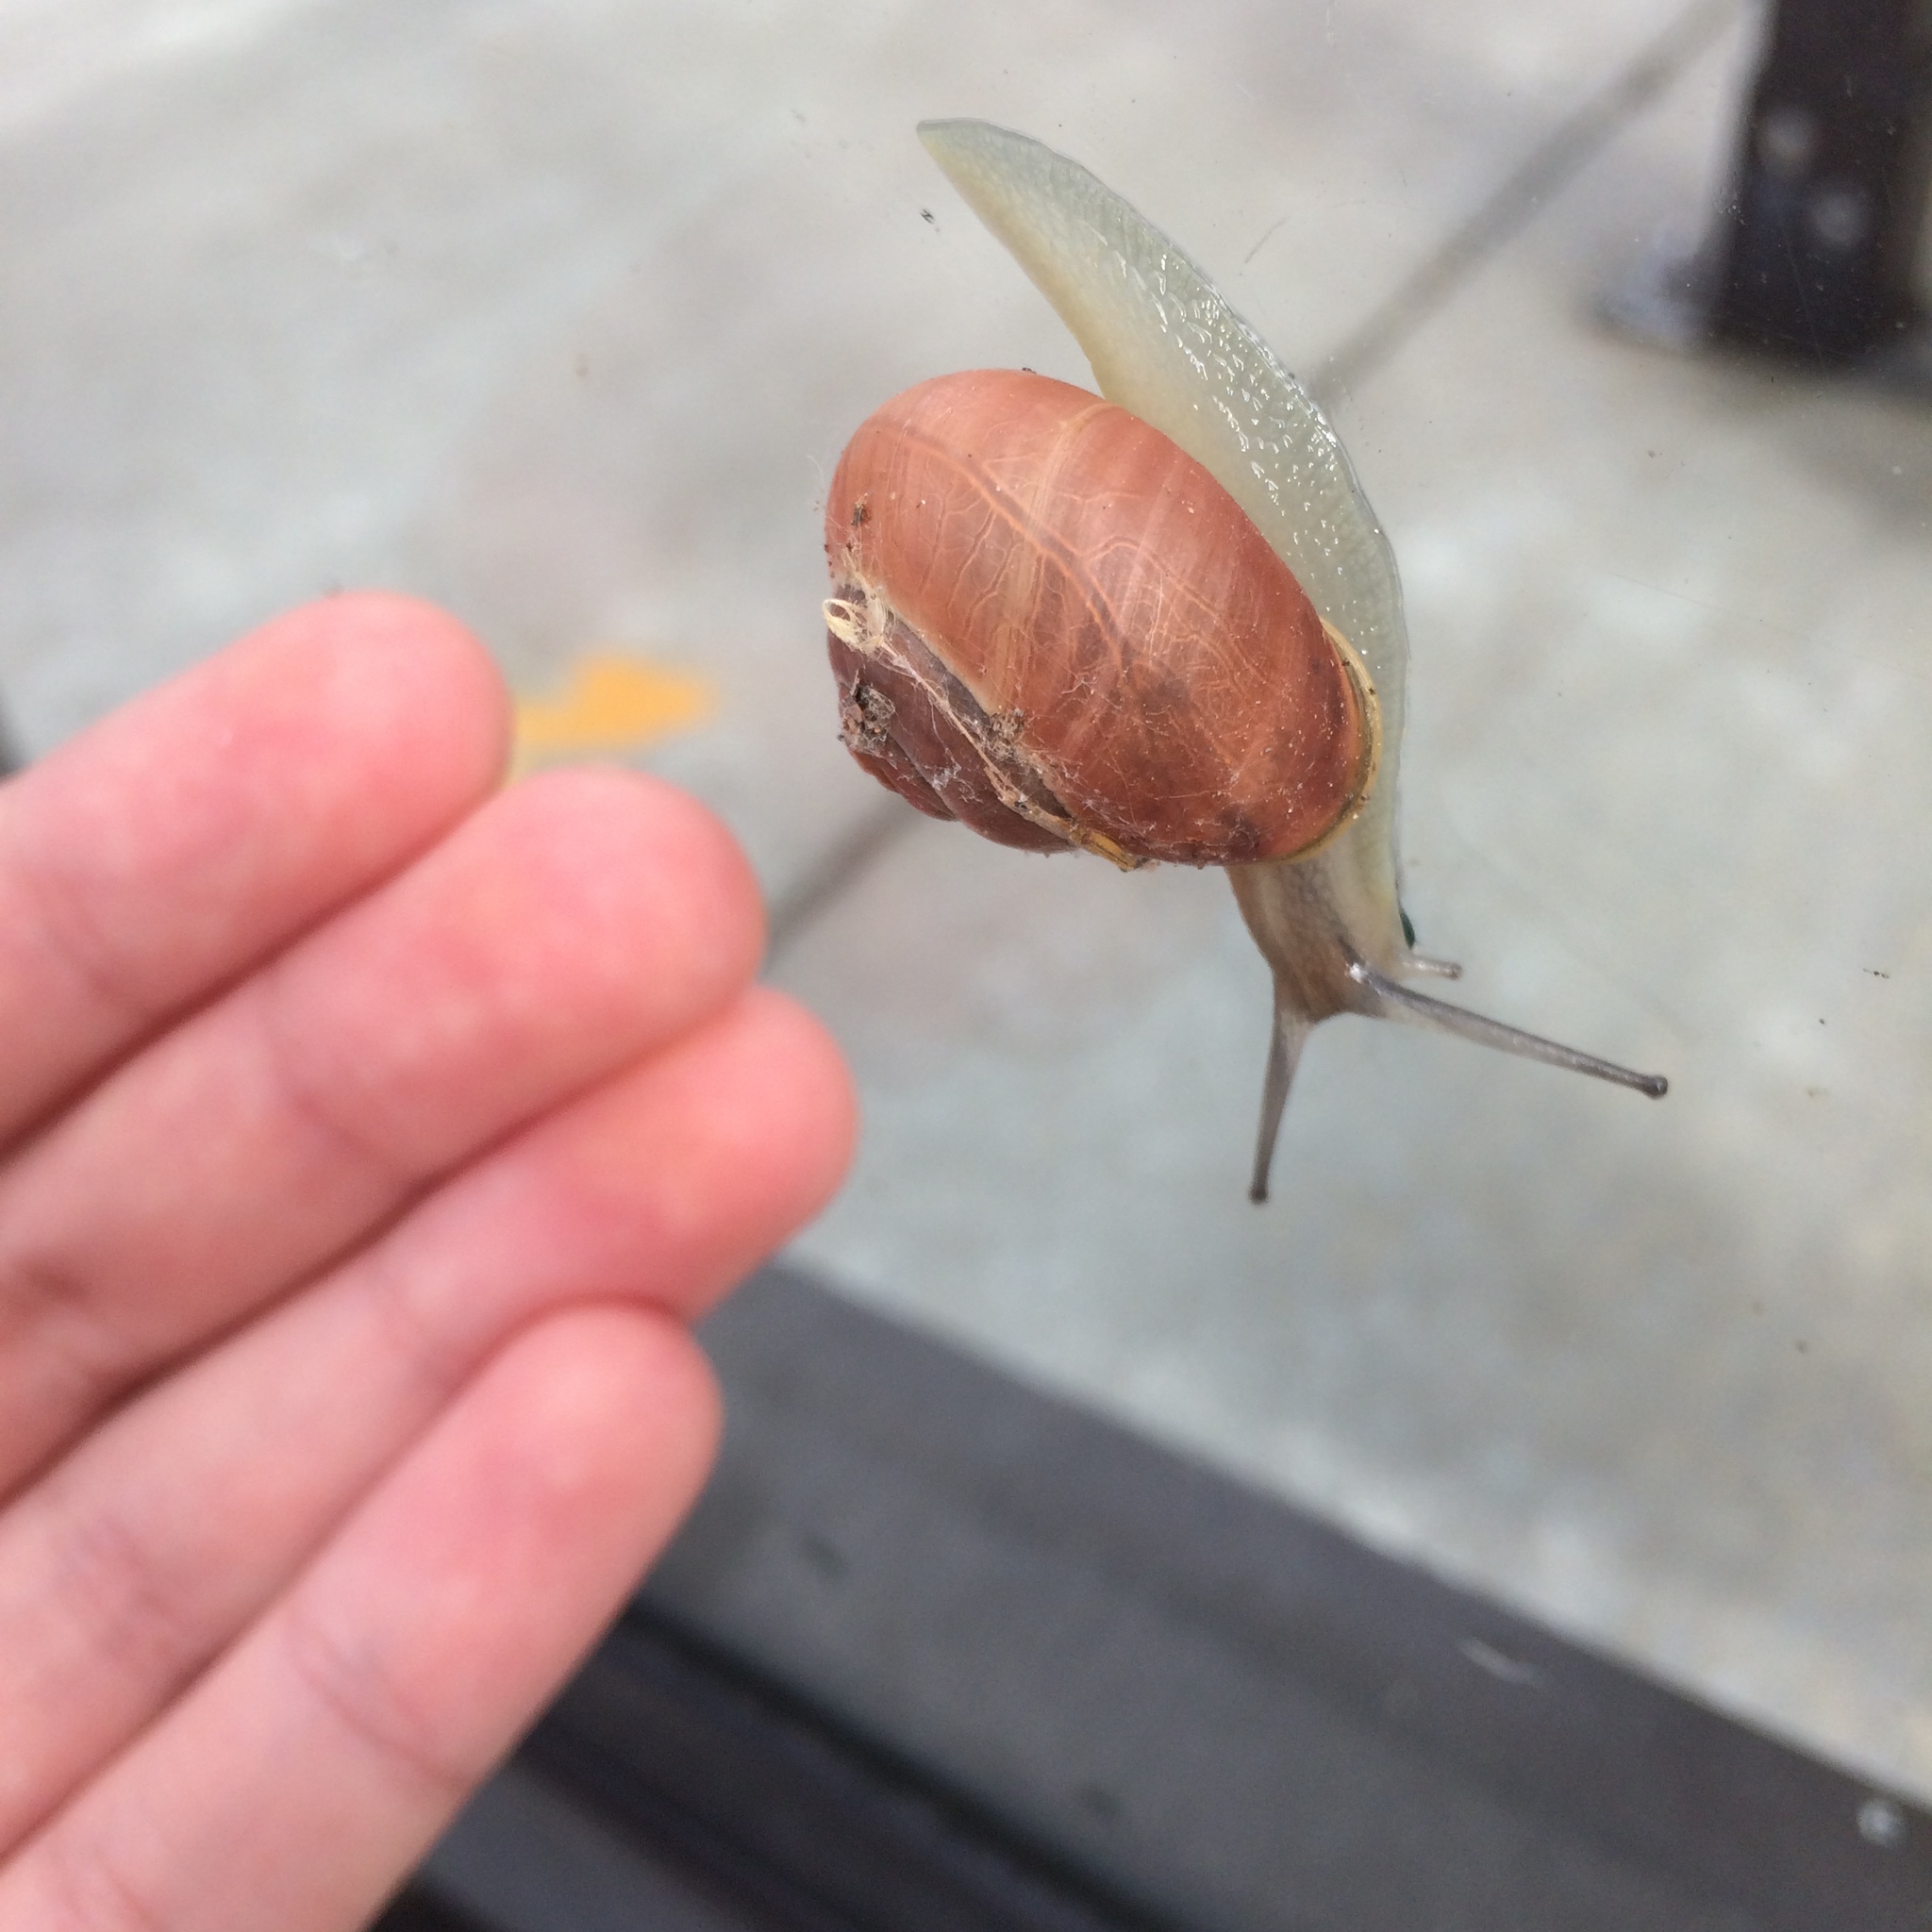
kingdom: Animalia
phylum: Mollusca
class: Gastropoda
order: Stylommatophora
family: Helicidae
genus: Cepaea
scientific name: Cepaea nemoralis
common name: Grovesnail
